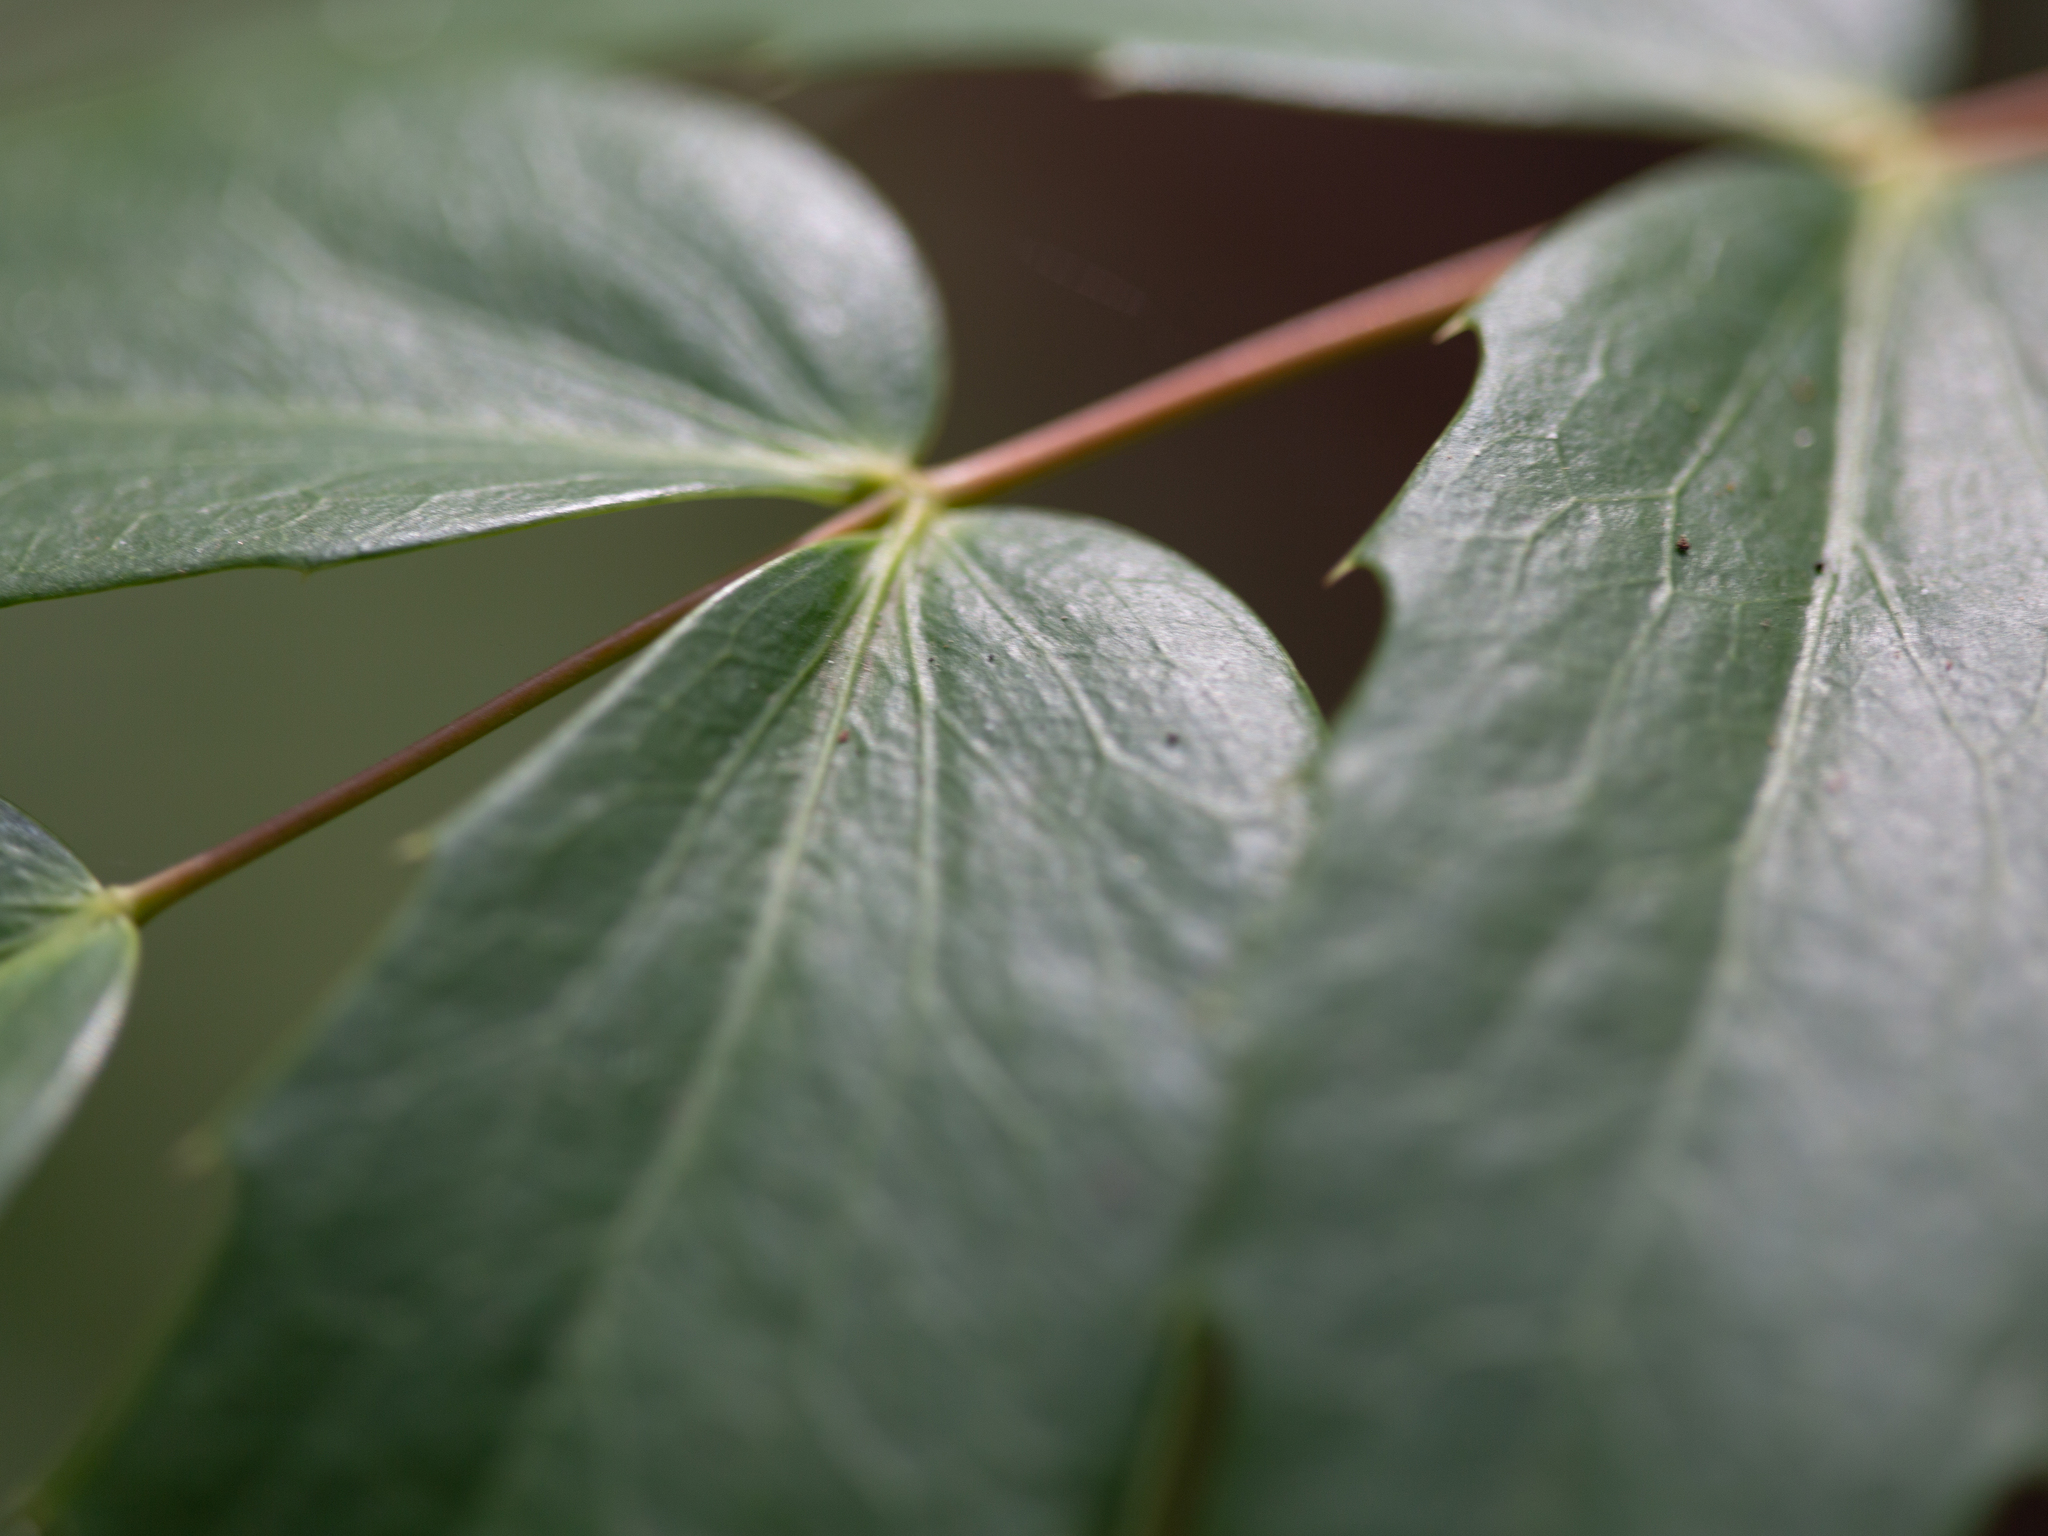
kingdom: Plantae
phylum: Tracheophyta
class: Magnoliopsida
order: Ranunculales
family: Berberidaceae
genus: Mahonia
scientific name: Mahonia nervosa
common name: Cascade oregon-grape
